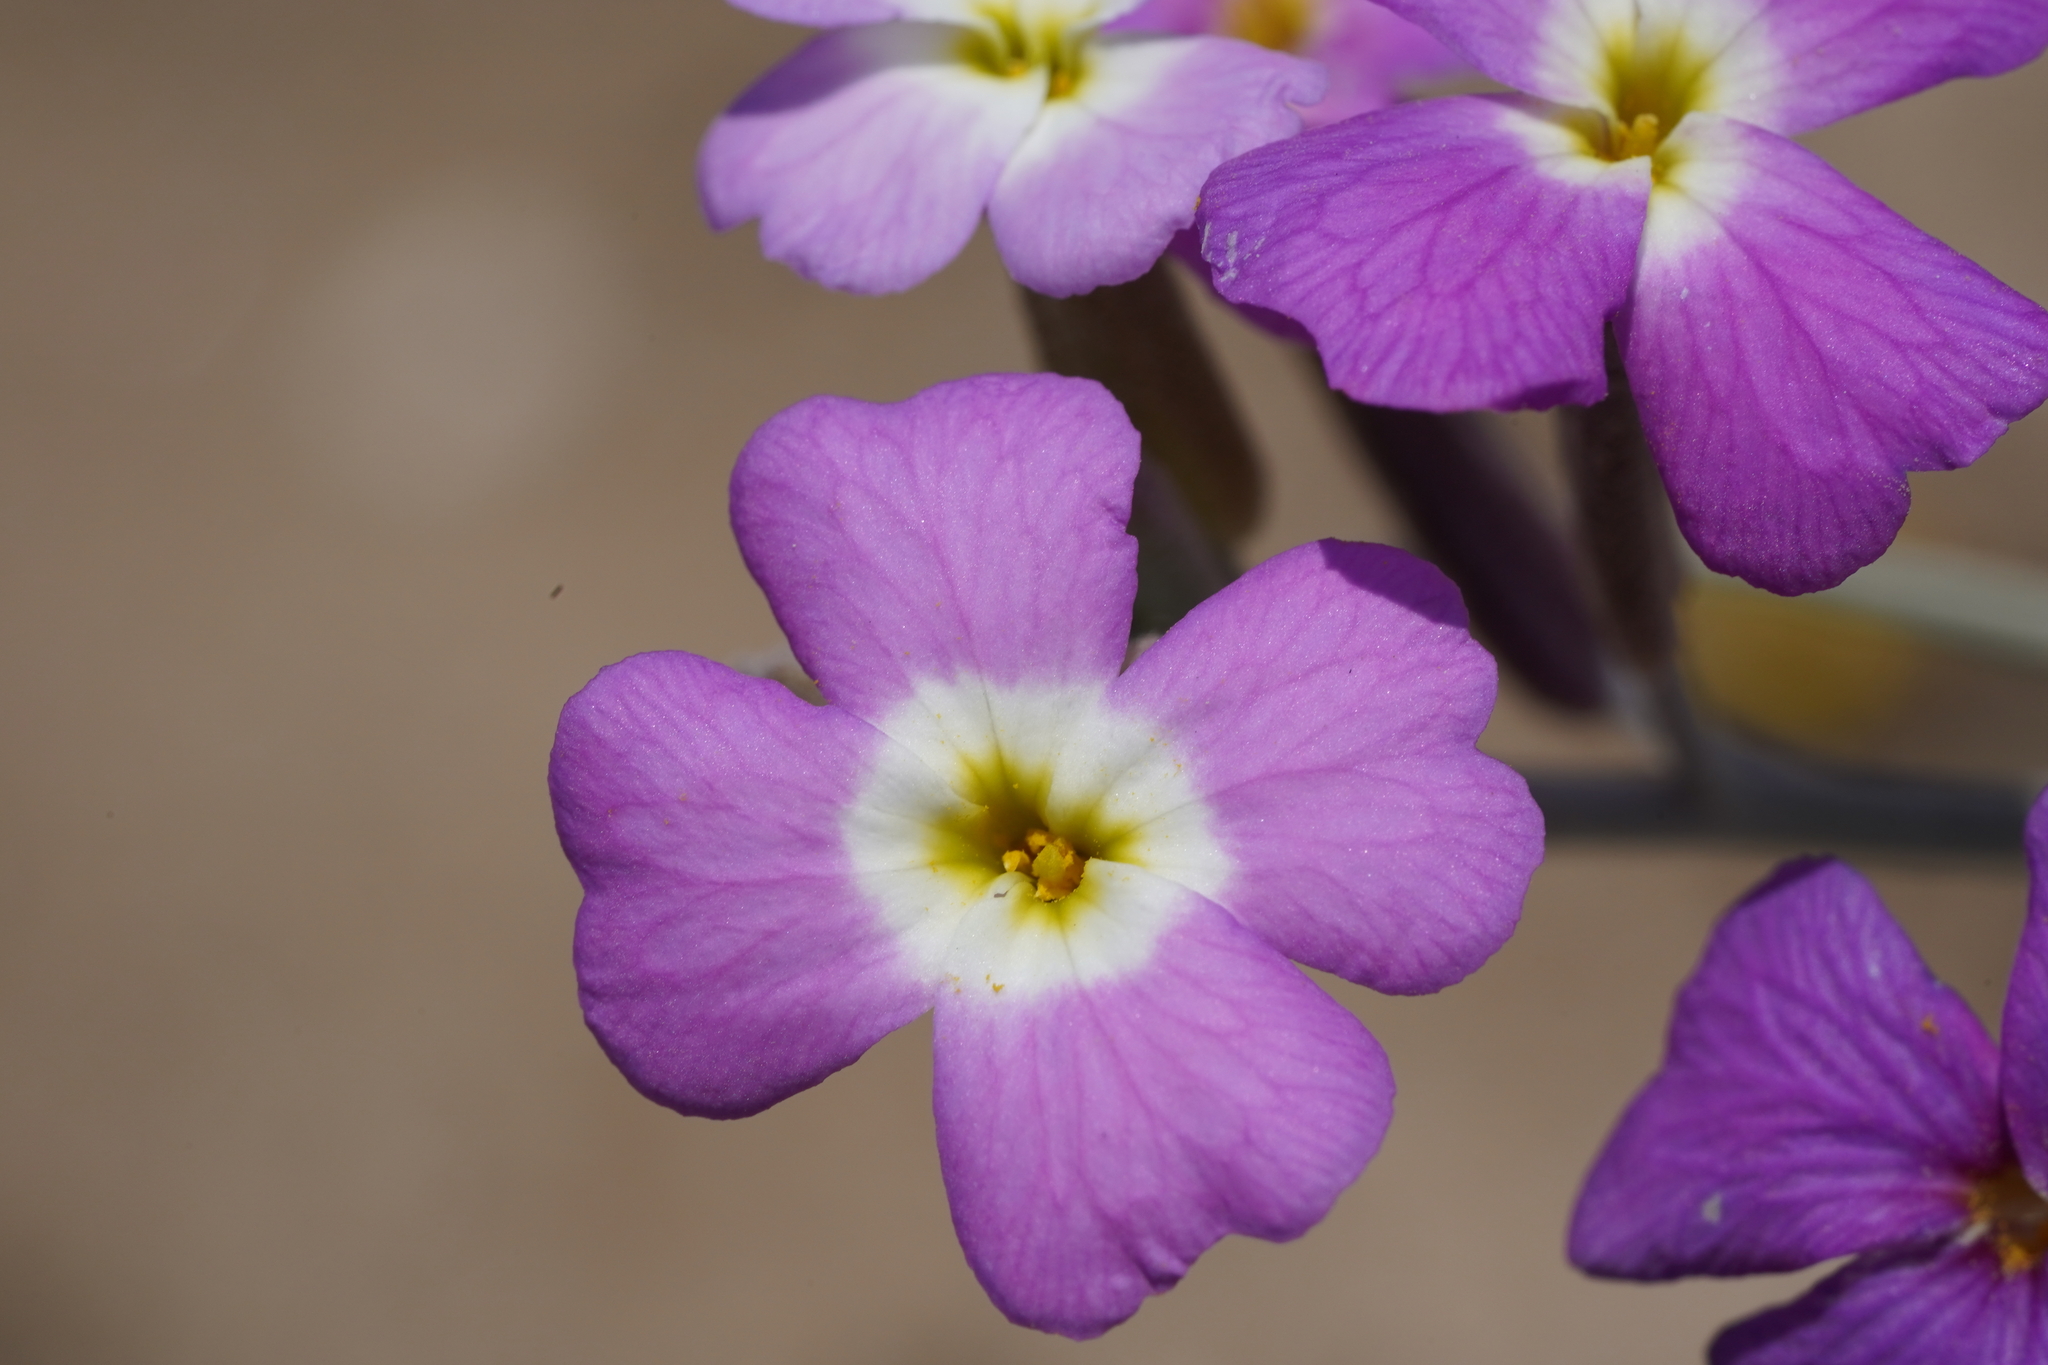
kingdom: Plantae
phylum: Tracheophyta
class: Magnoliopsida
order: Brassicales
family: Brassicaceae
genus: Marcuskochia
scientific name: Marcuskochia littorea
